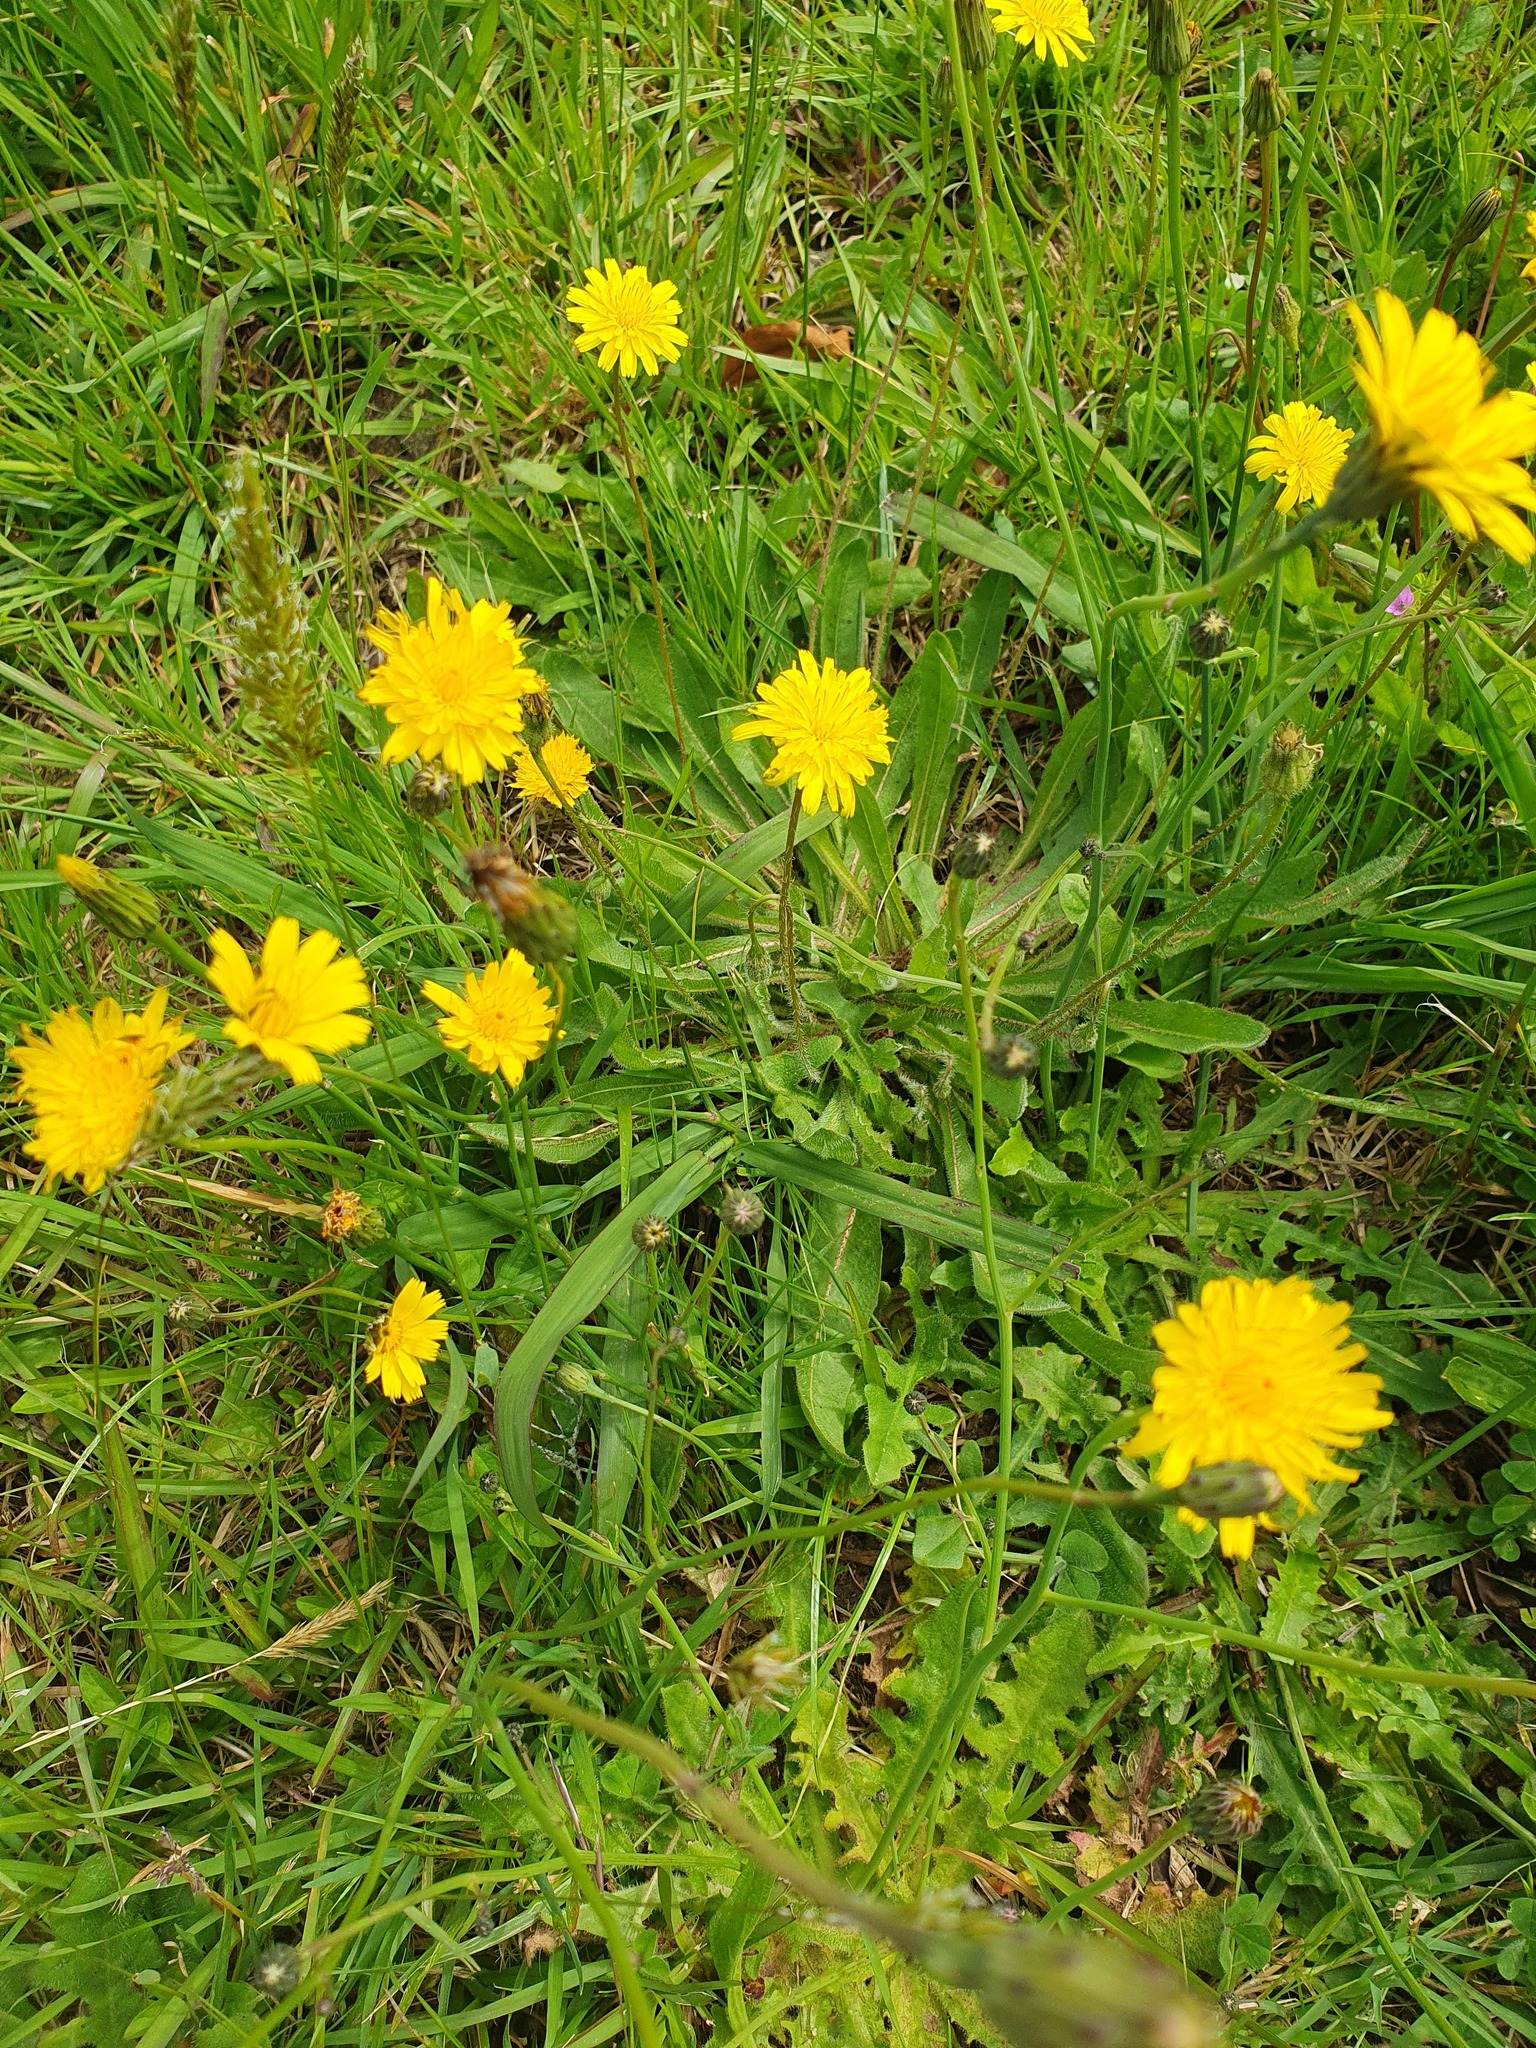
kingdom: Plantae
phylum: Tracheophyta
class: Magnoliopsida
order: Asterales
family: Asteraceae
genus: Hypochaeris
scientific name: Hypochaeris radicata
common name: Flatweed
